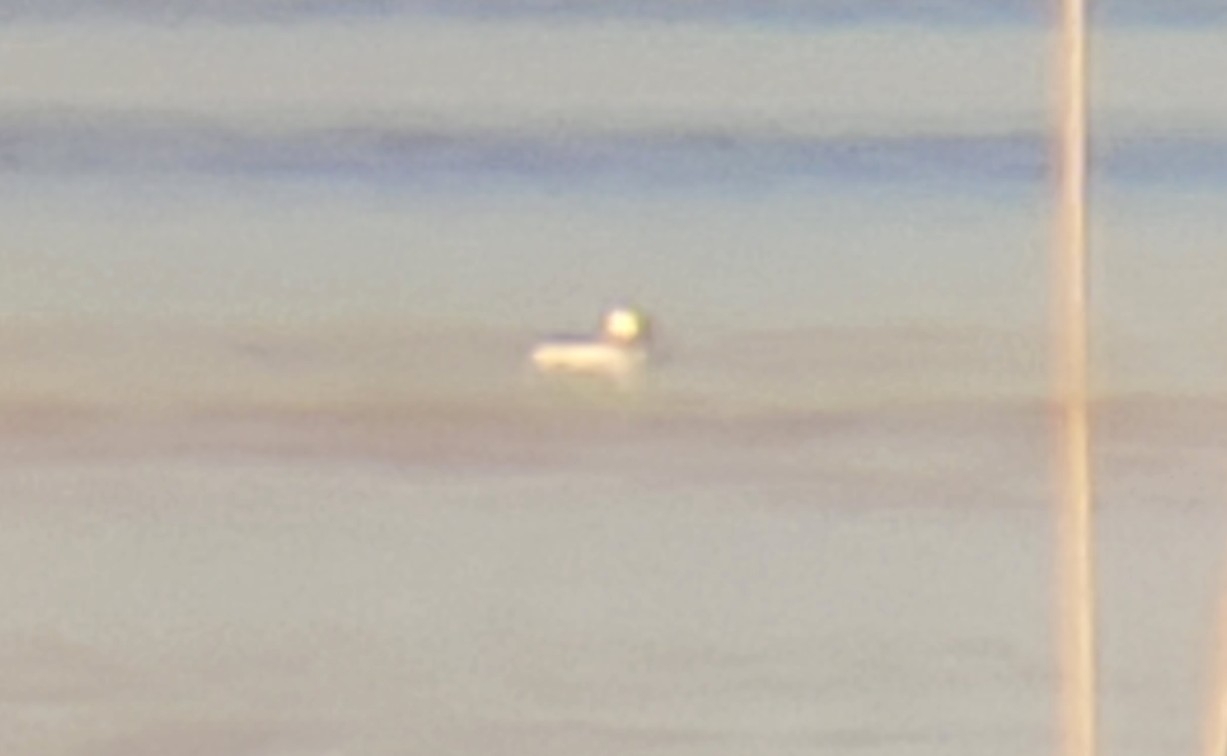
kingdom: Animalia
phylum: Chordata
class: Aves
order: Anseriformes
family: Anatidae
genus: Bucephala
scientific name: Bucephala albeola
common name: Bufflehead
